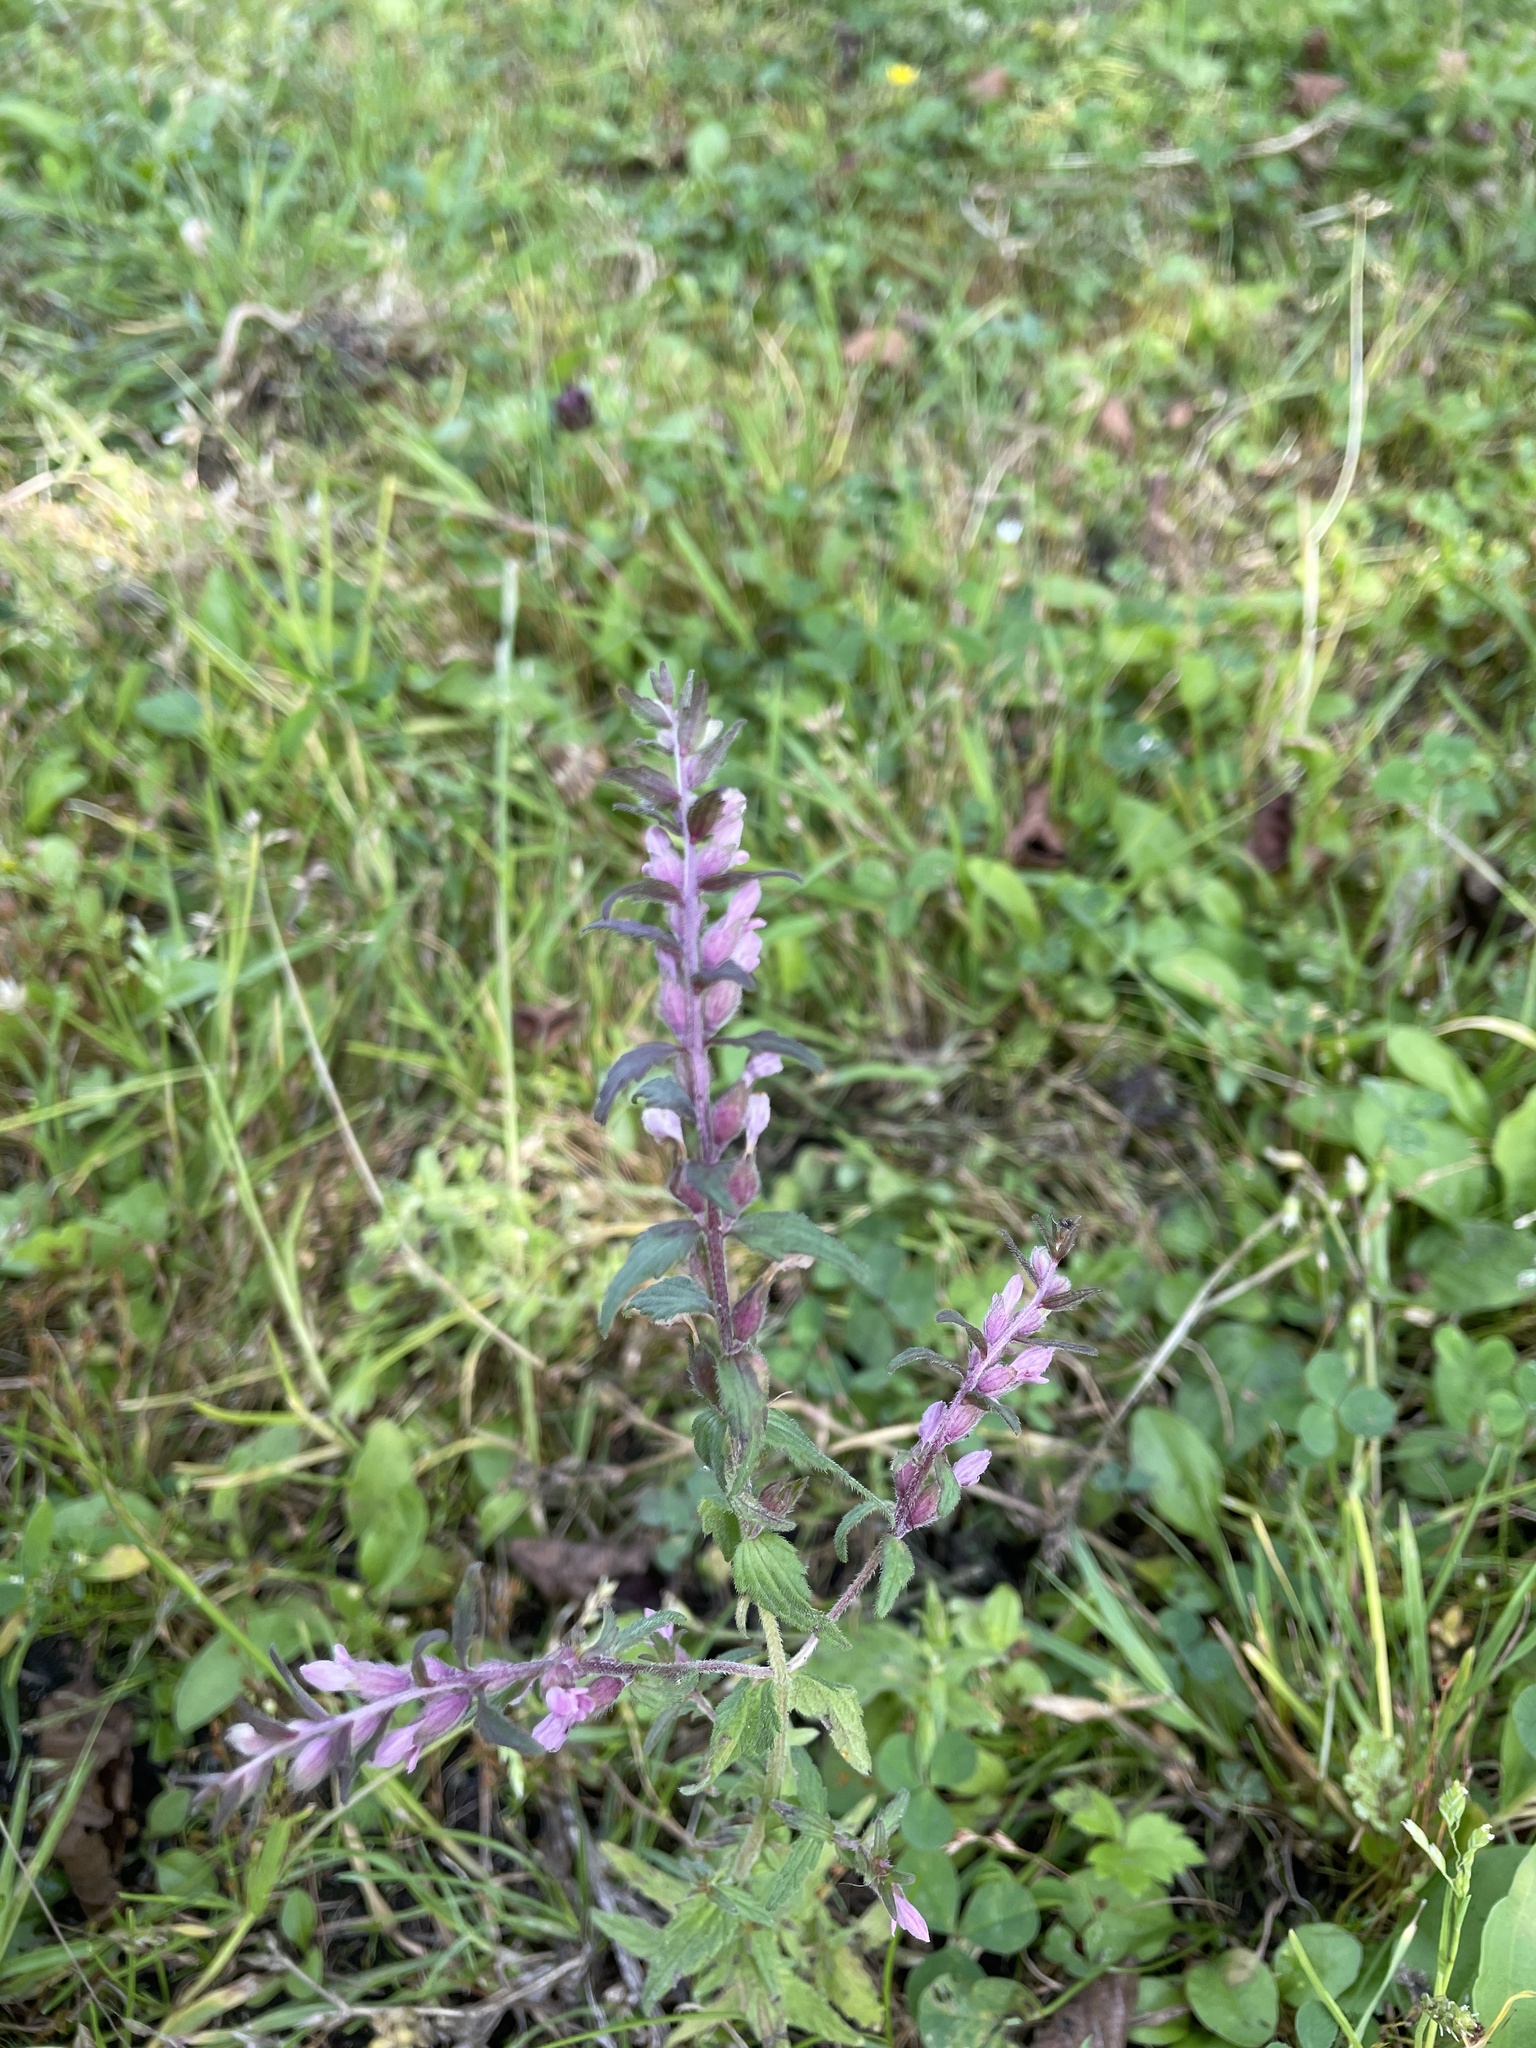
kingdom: Plantae
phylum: Tracheophyta
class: Magnoliopsida
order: Lamiales
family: Orobanchaceae
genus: Odontites
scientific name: Odontites vernus
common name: Red bartsia
